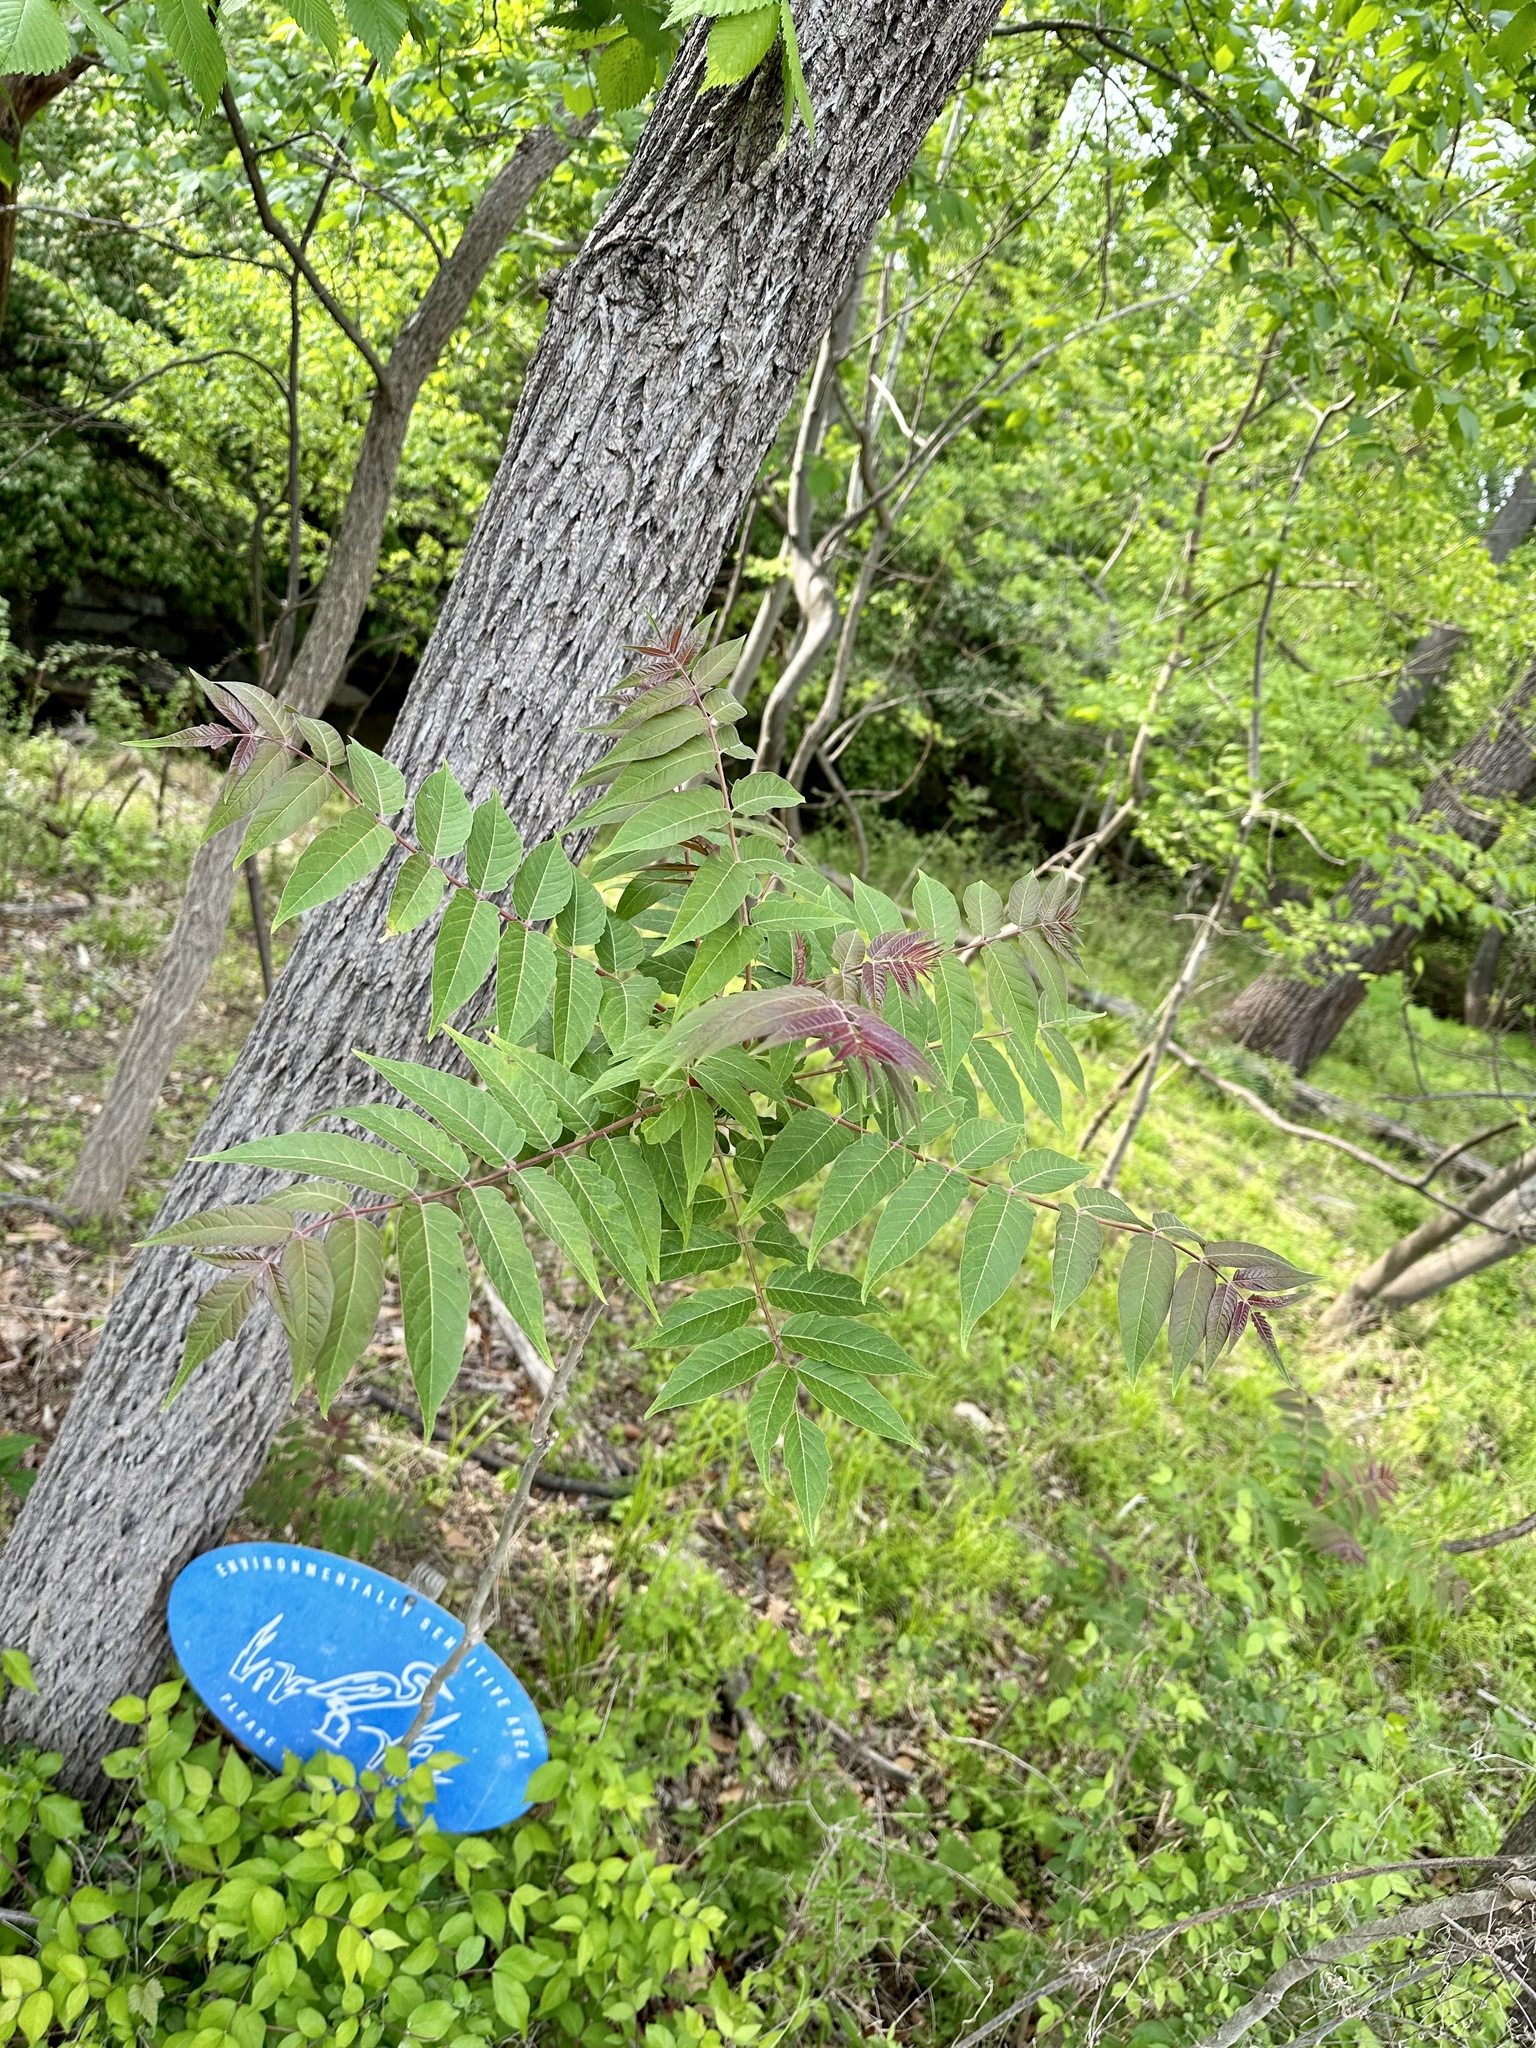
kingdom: Plantae
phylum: Tracheophyta
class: Magnoliopsida
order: Sapindales
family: Simaroubaceae
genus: Ailanthus
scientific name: Ailanthus altissima
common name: Tree-of-heaven
